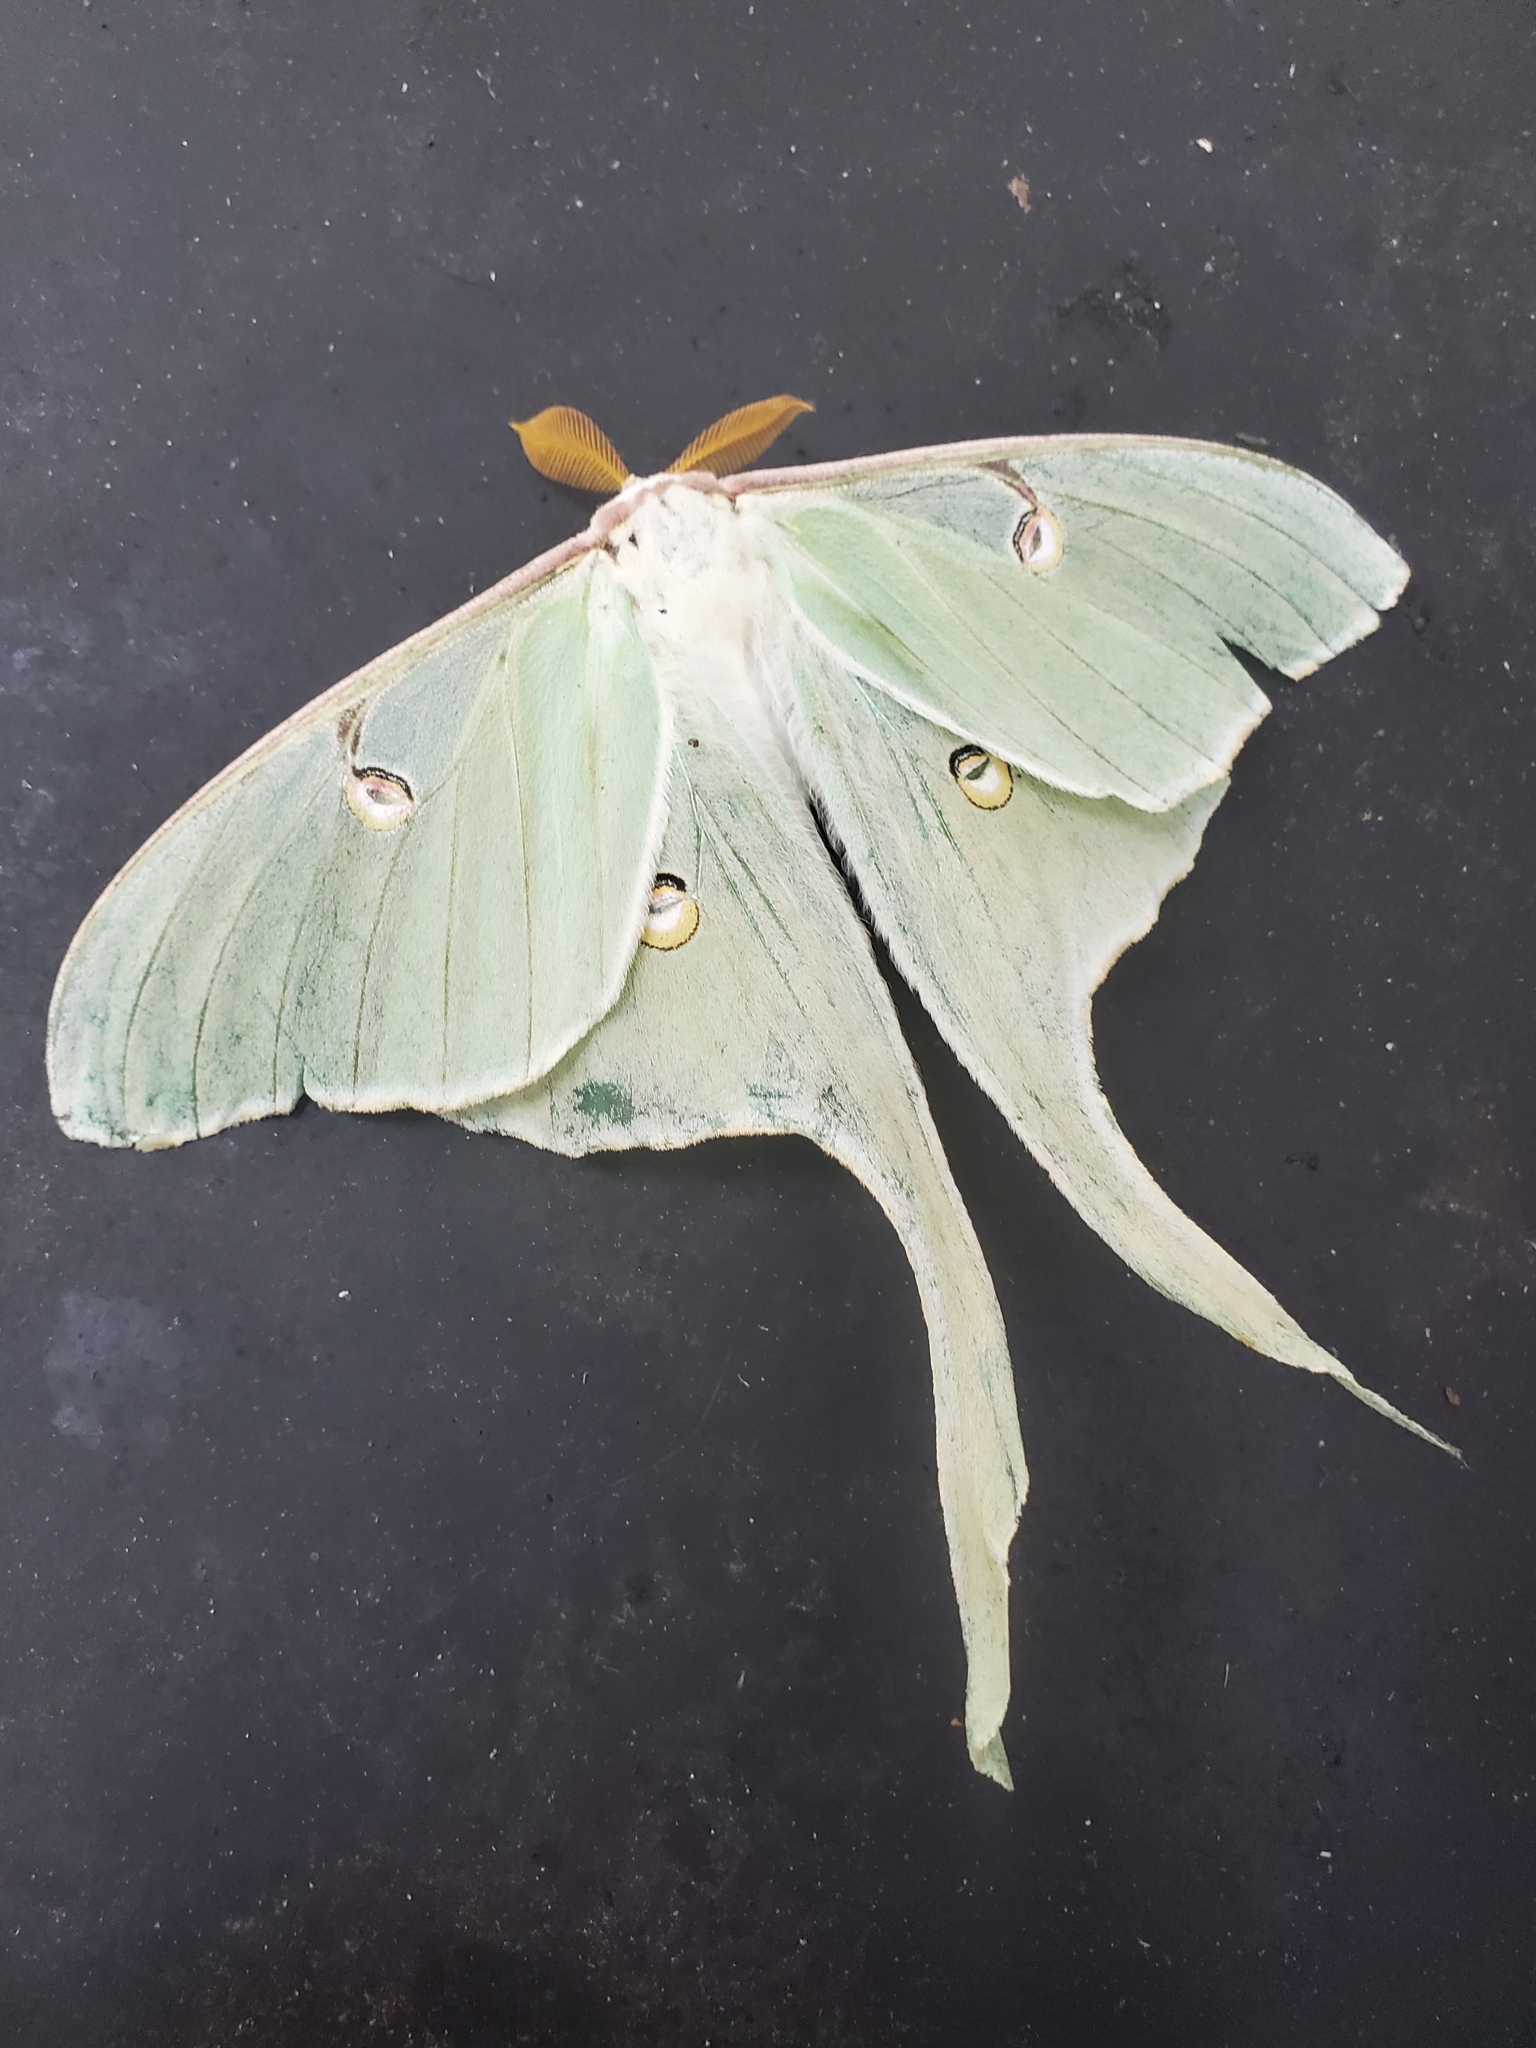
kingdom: Animalia
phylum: Arthropoda
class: Insecta
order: Lepidoptera
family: Saturniidae
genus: Actias
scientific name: Actias luna
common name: Luna moth
